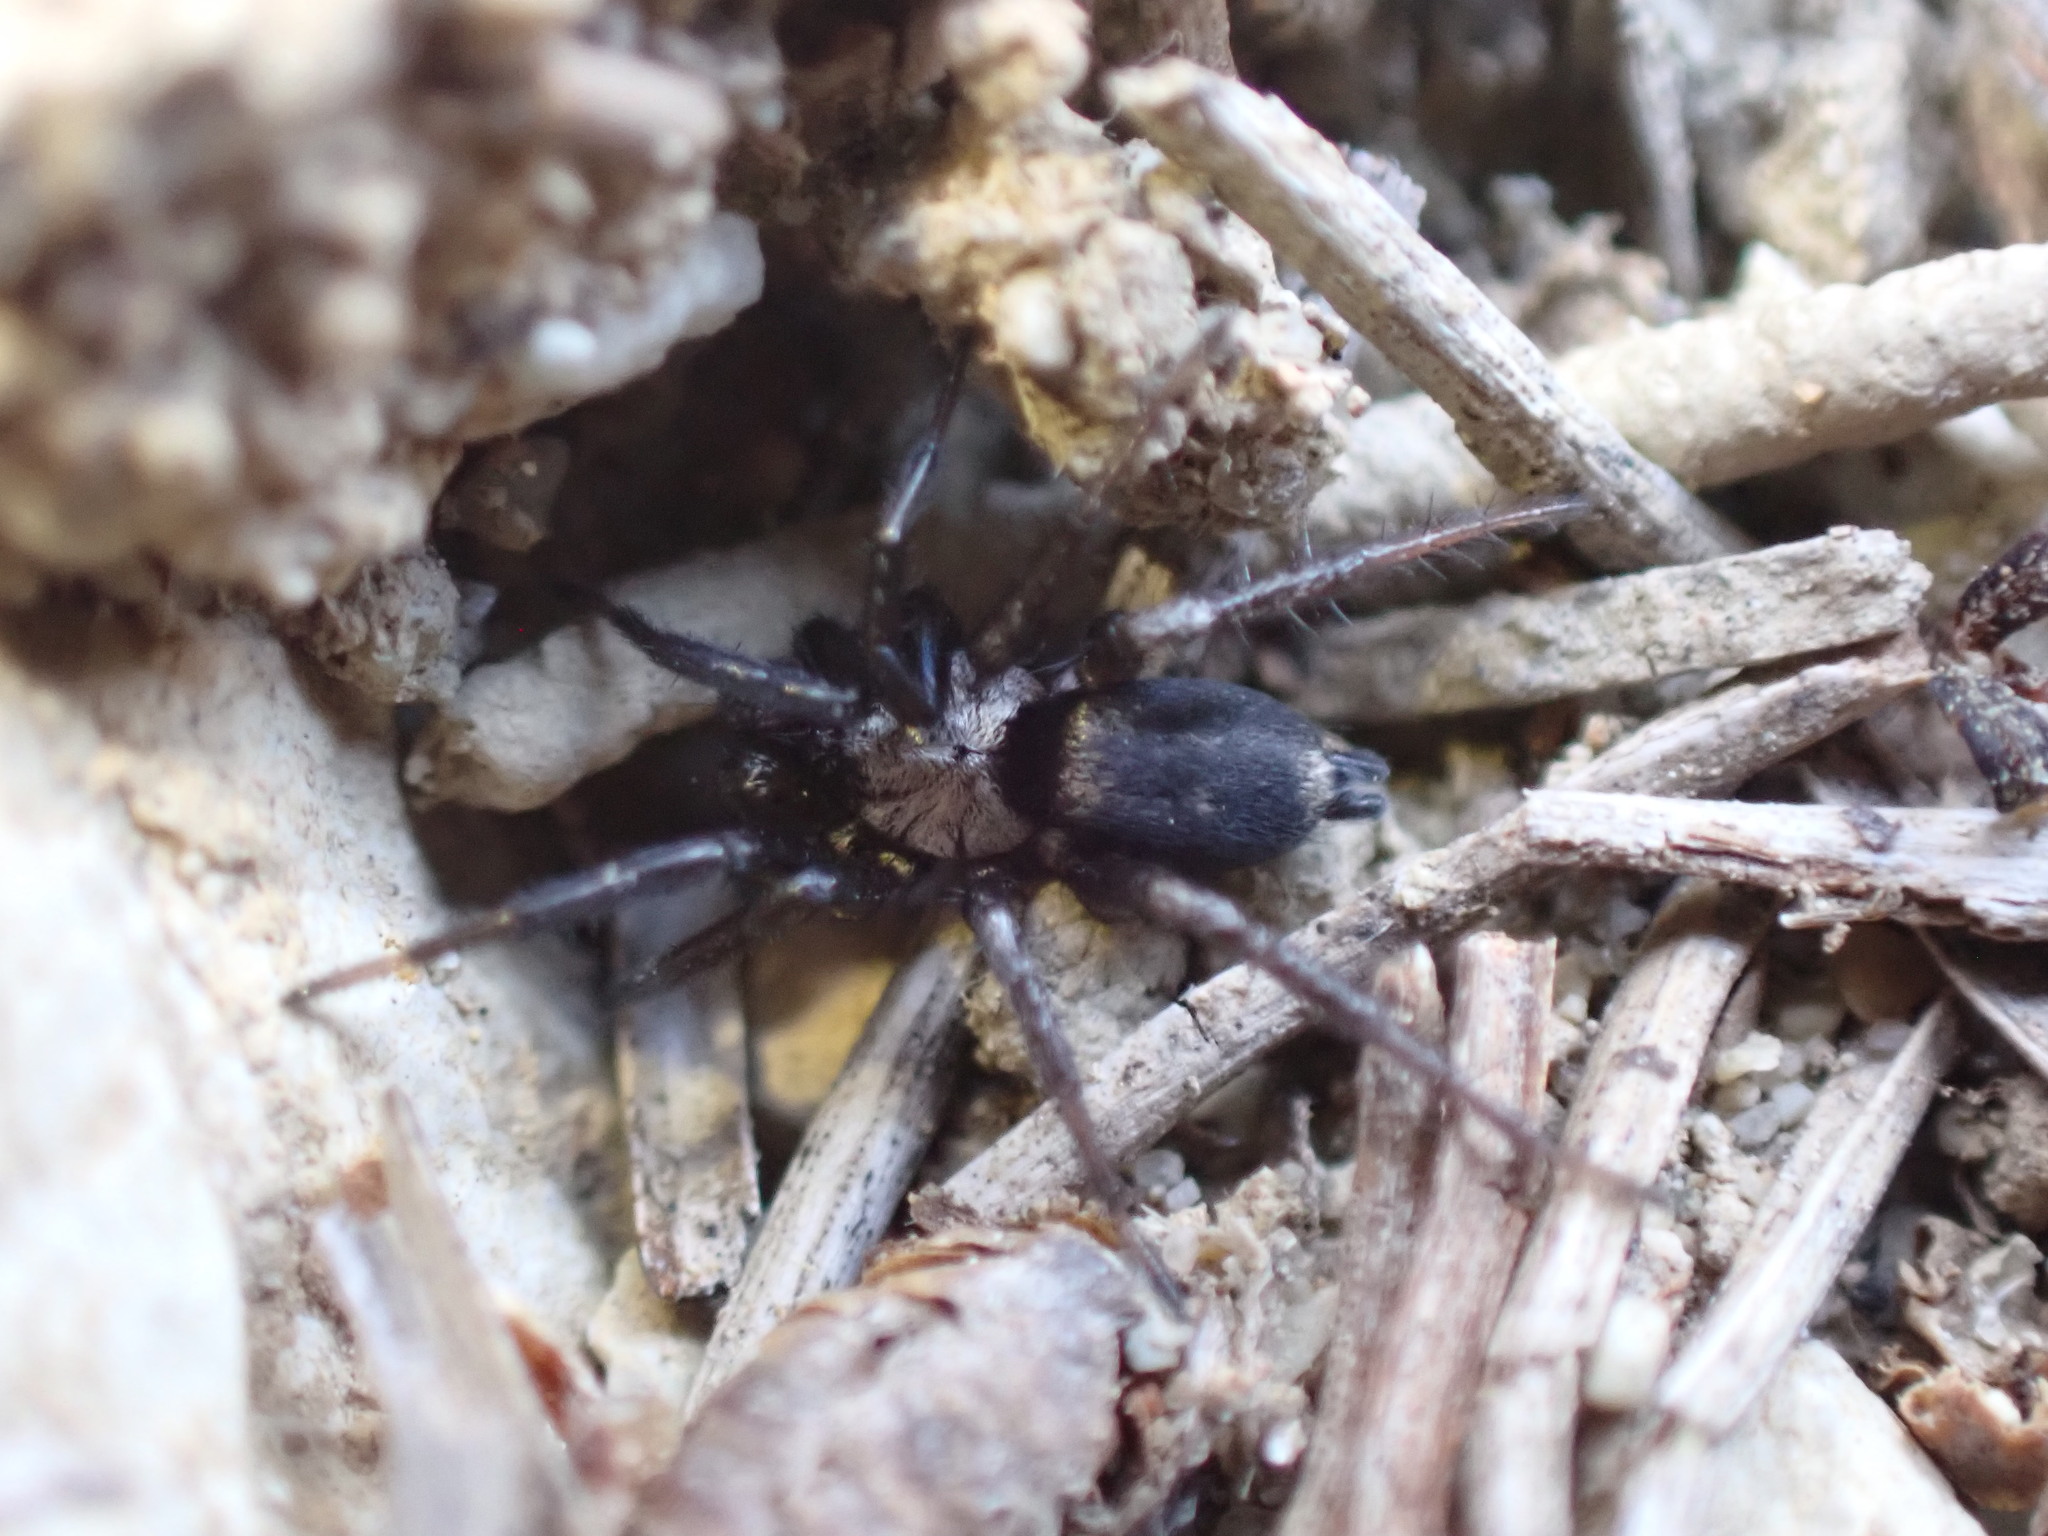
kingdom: Animalia
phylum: Arthropoda
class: Arachnida
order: Araneae
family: Gnaphosidae
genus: Callilepis
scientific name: Callilepis concolor
